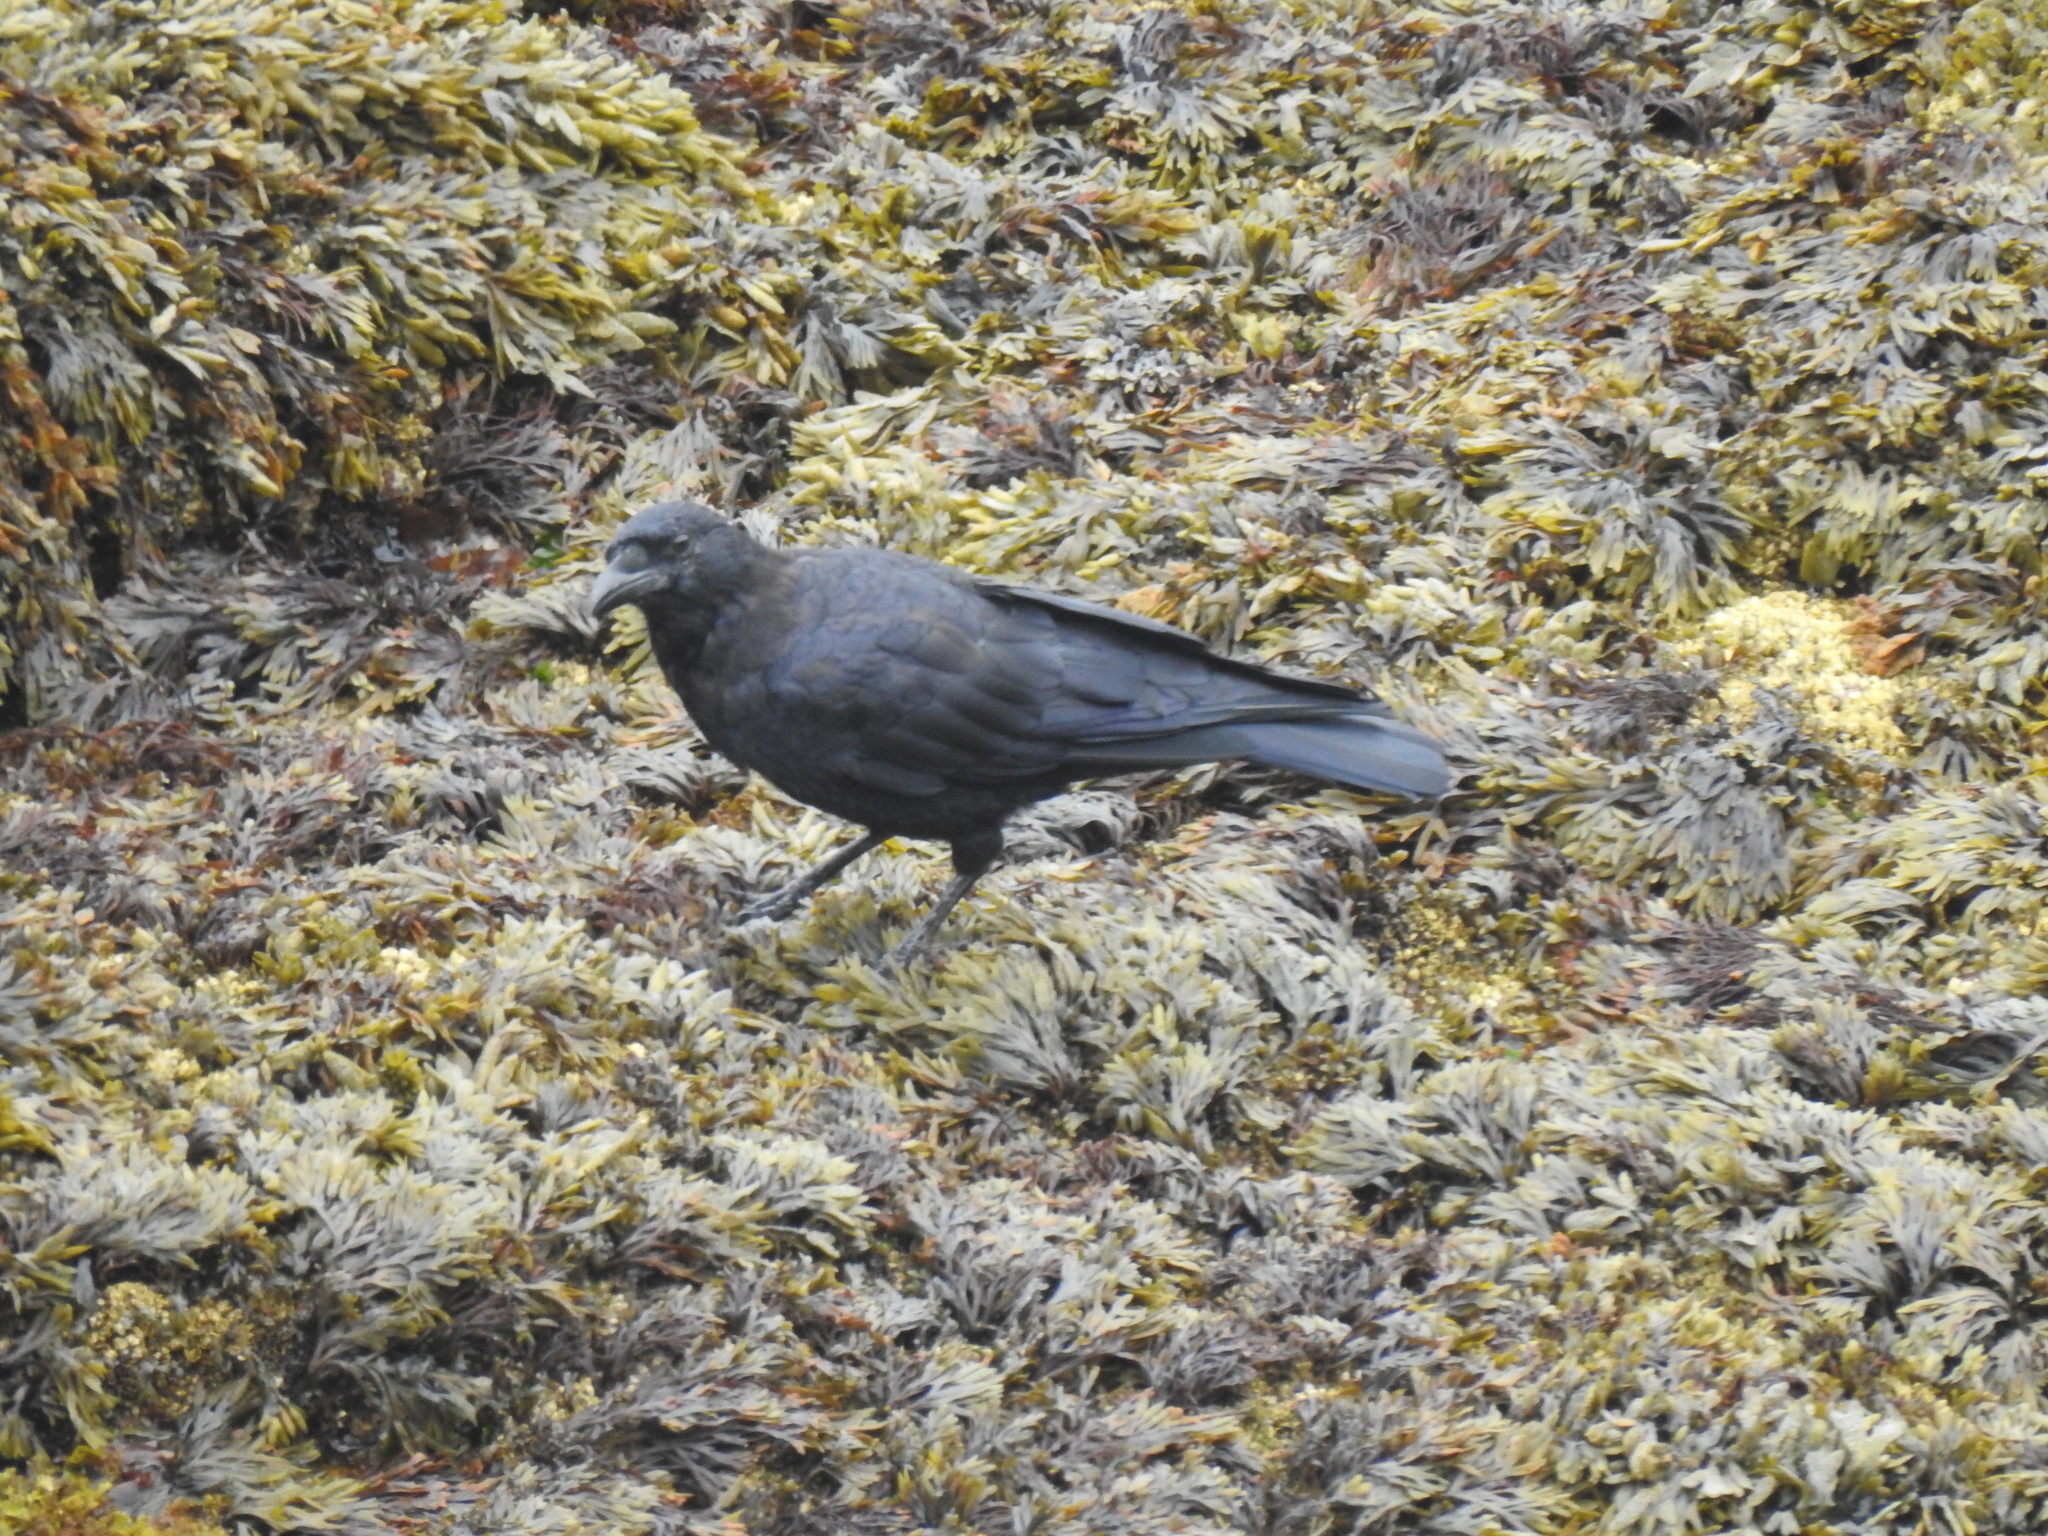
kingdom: Animalia
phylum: Chordata
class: Aves
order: Passeriformes
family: Corvidae
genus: Corvus
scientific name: Corvus brachyrhynchos
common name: American crow
